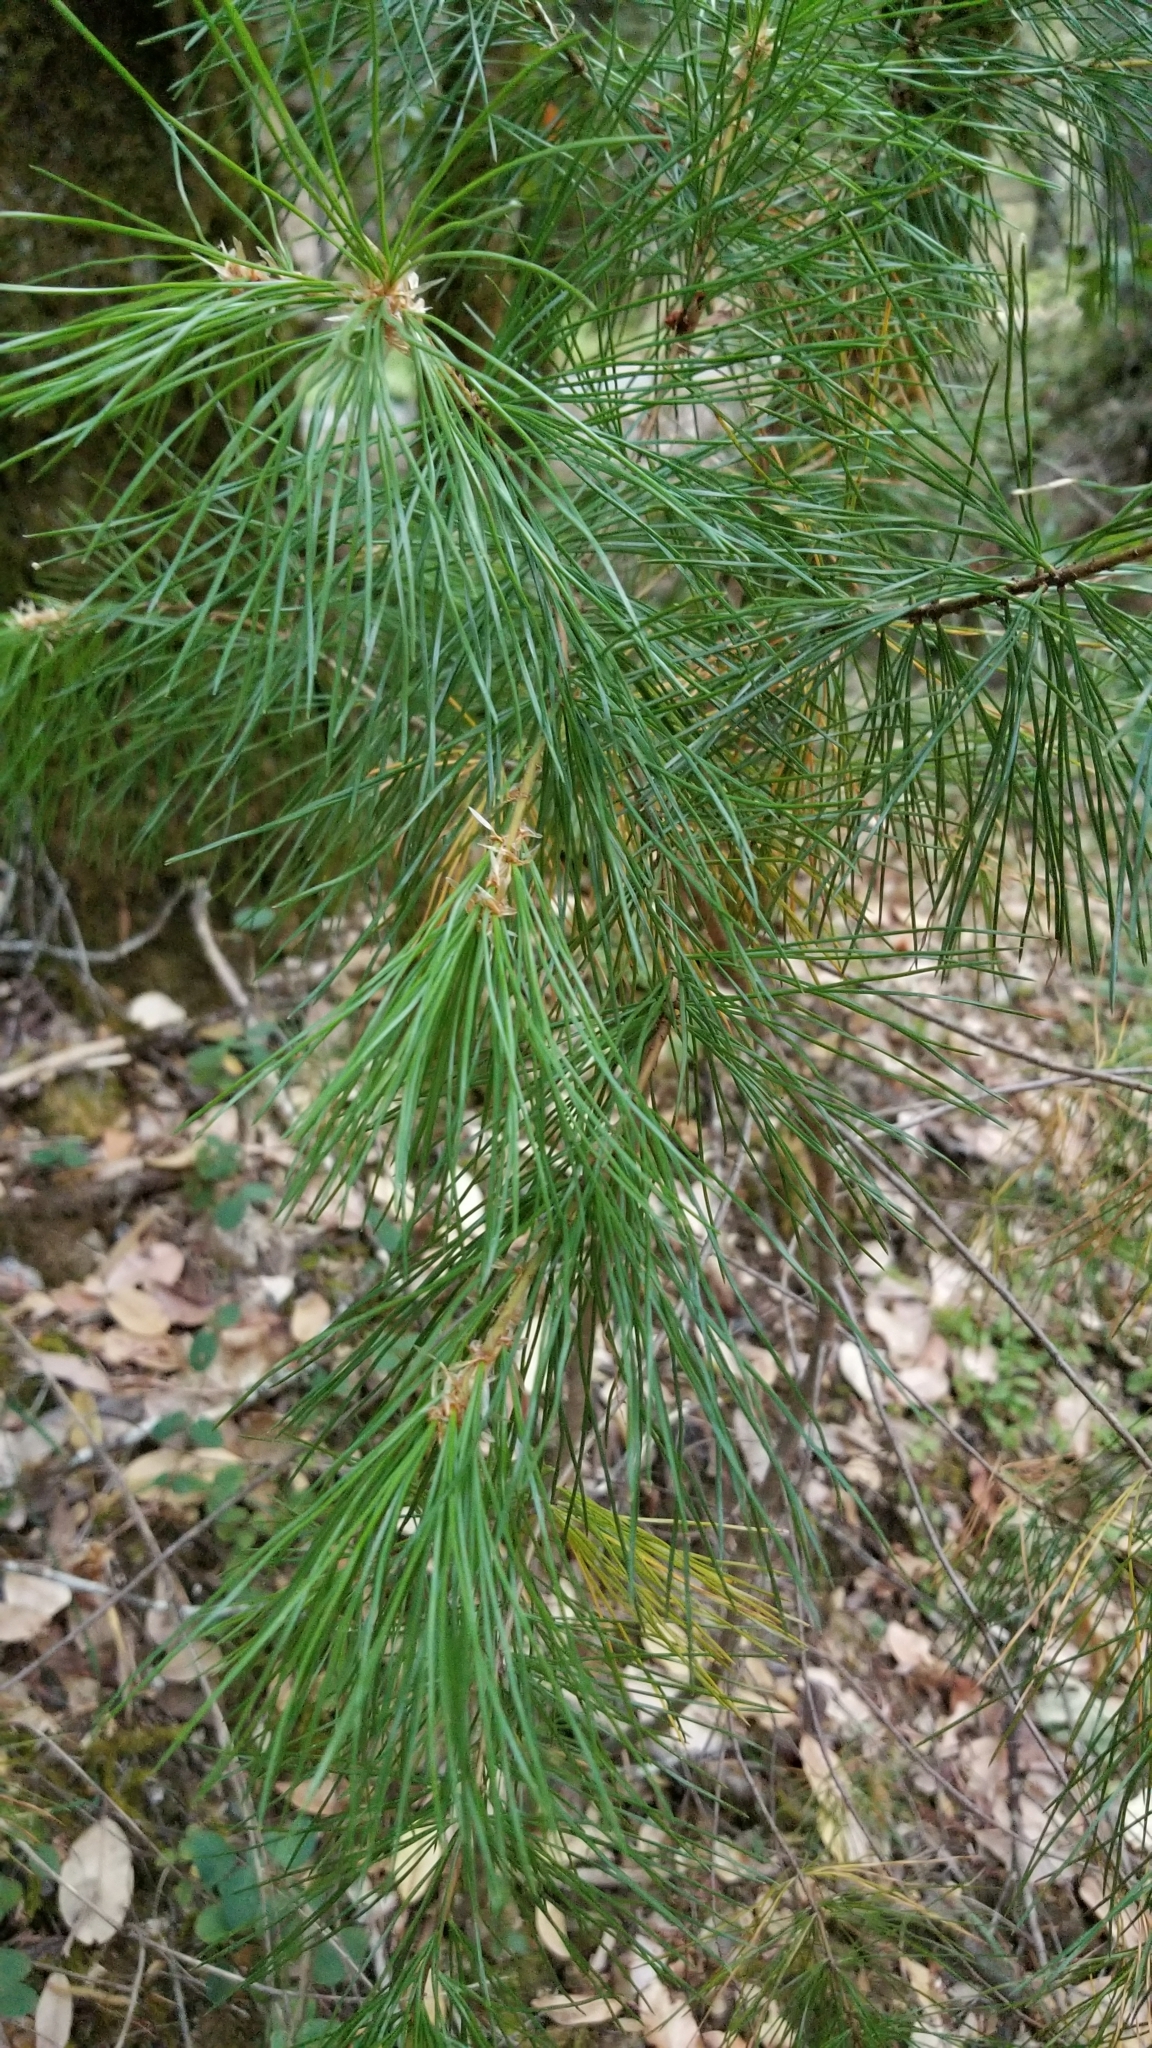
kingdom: Plantae
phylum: Tracheophyta
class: Pinopsida
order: Pinales
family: Pinaceae
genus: Pinus
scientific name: Pinus lambertiana
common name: Sugar pine
